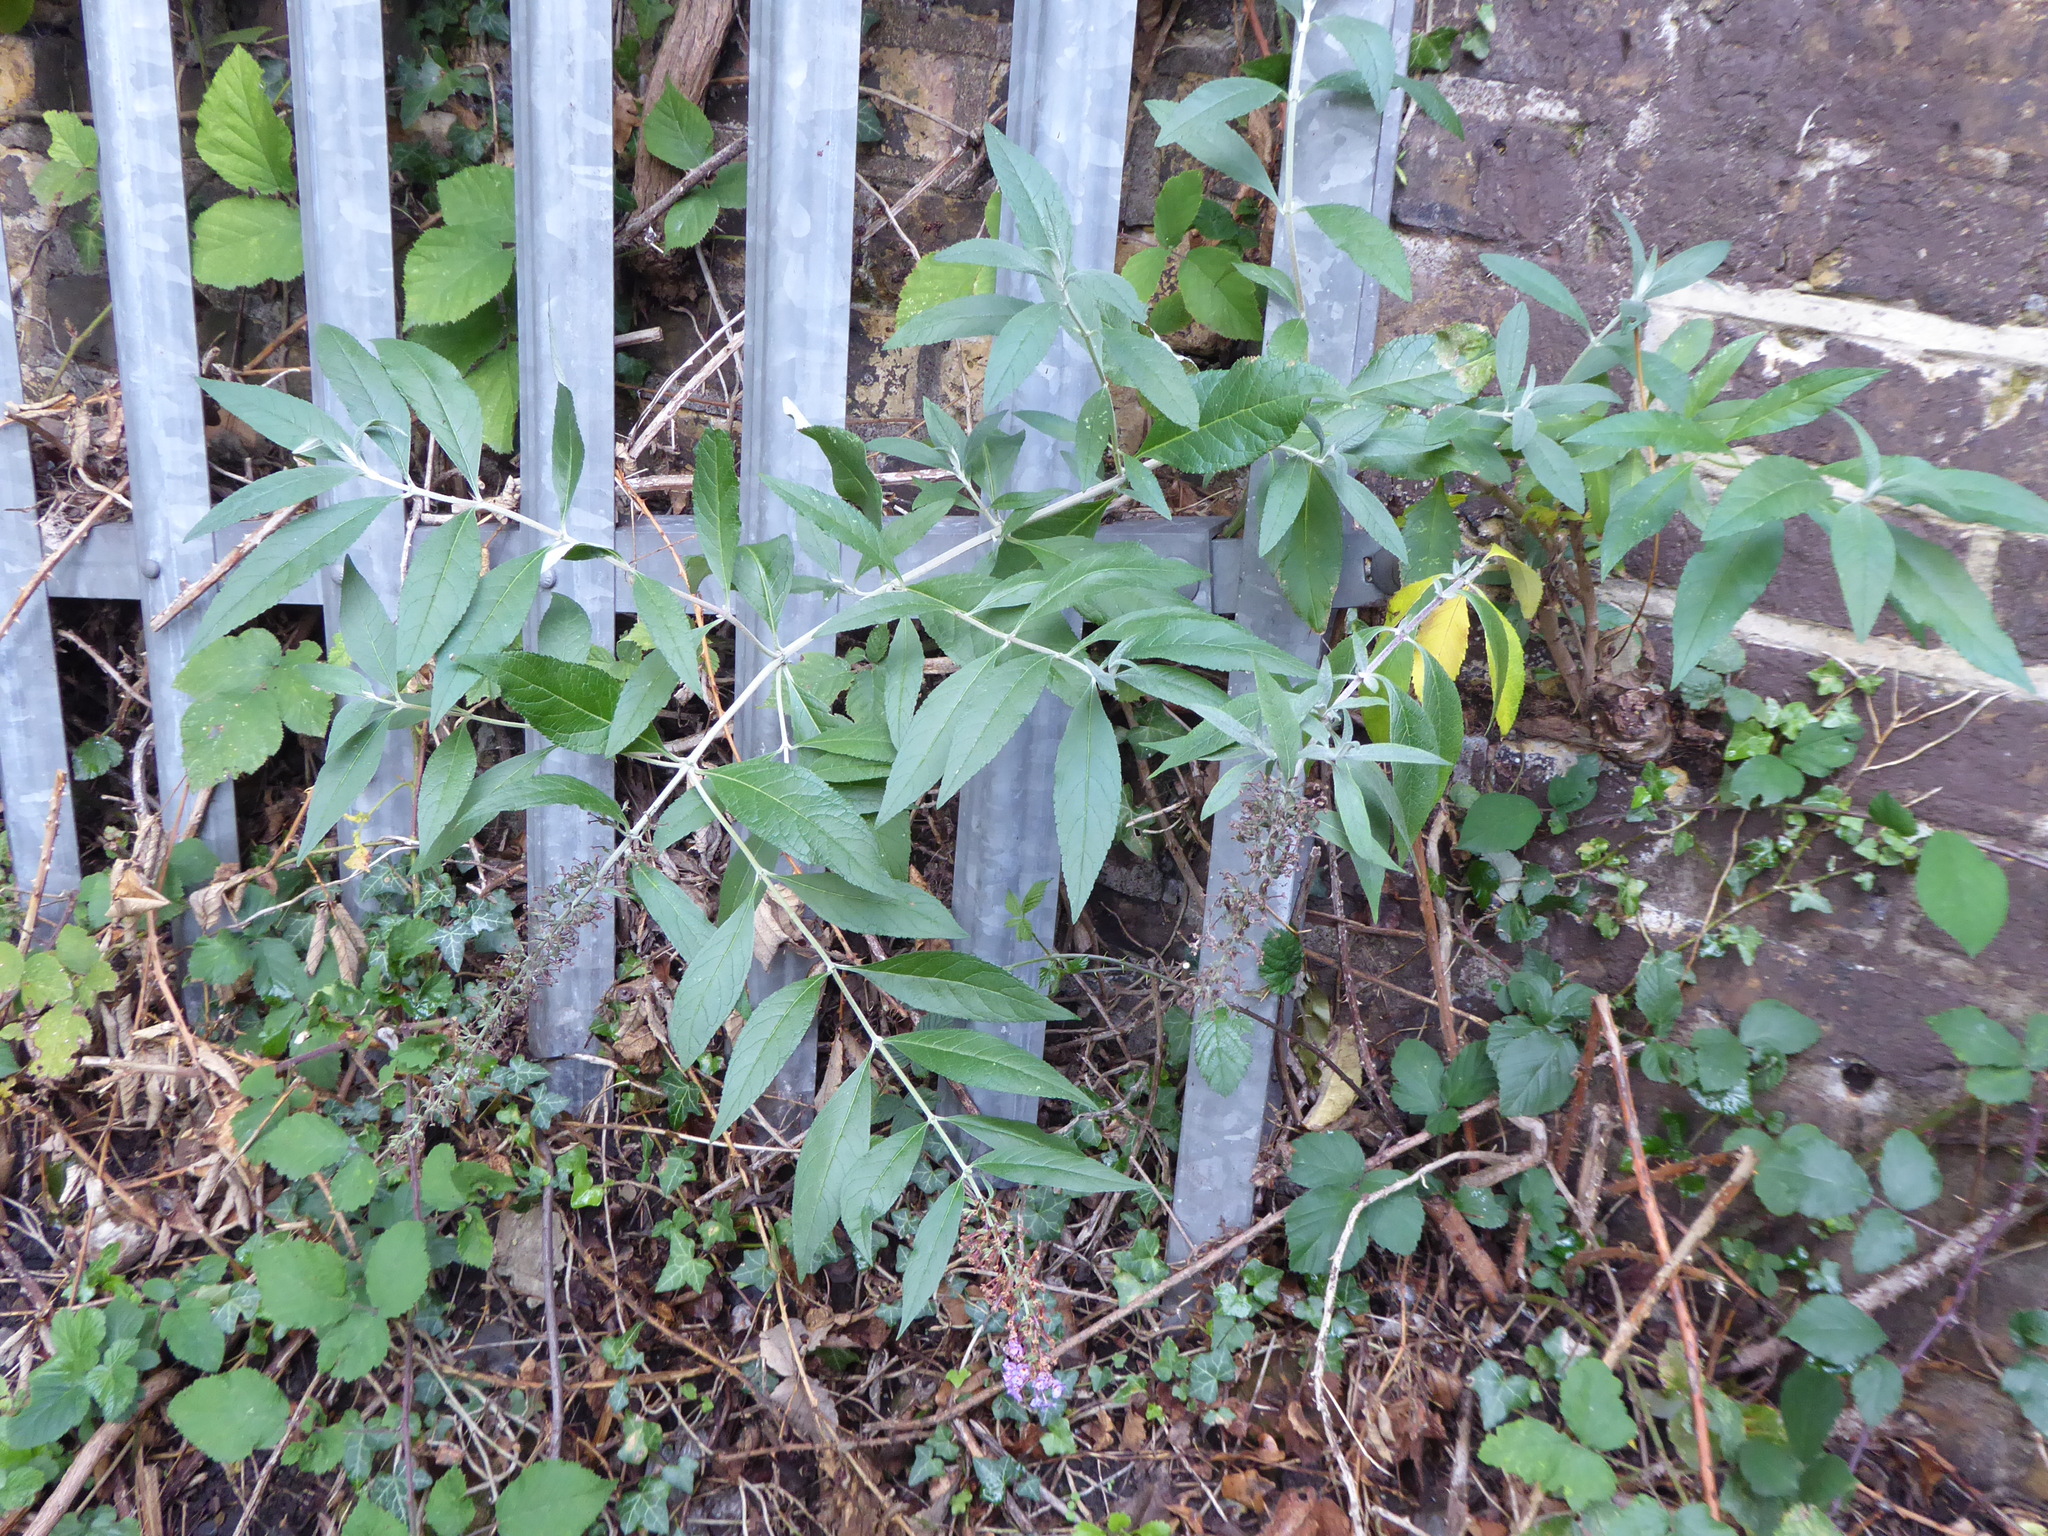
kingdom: Plantae
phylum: Tracheophyta
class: Magnoliopsida
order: Lamiales
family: Scrophulariaceae
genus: Buddleja
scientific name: Buddleja davidii
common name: Butterfly-bush
